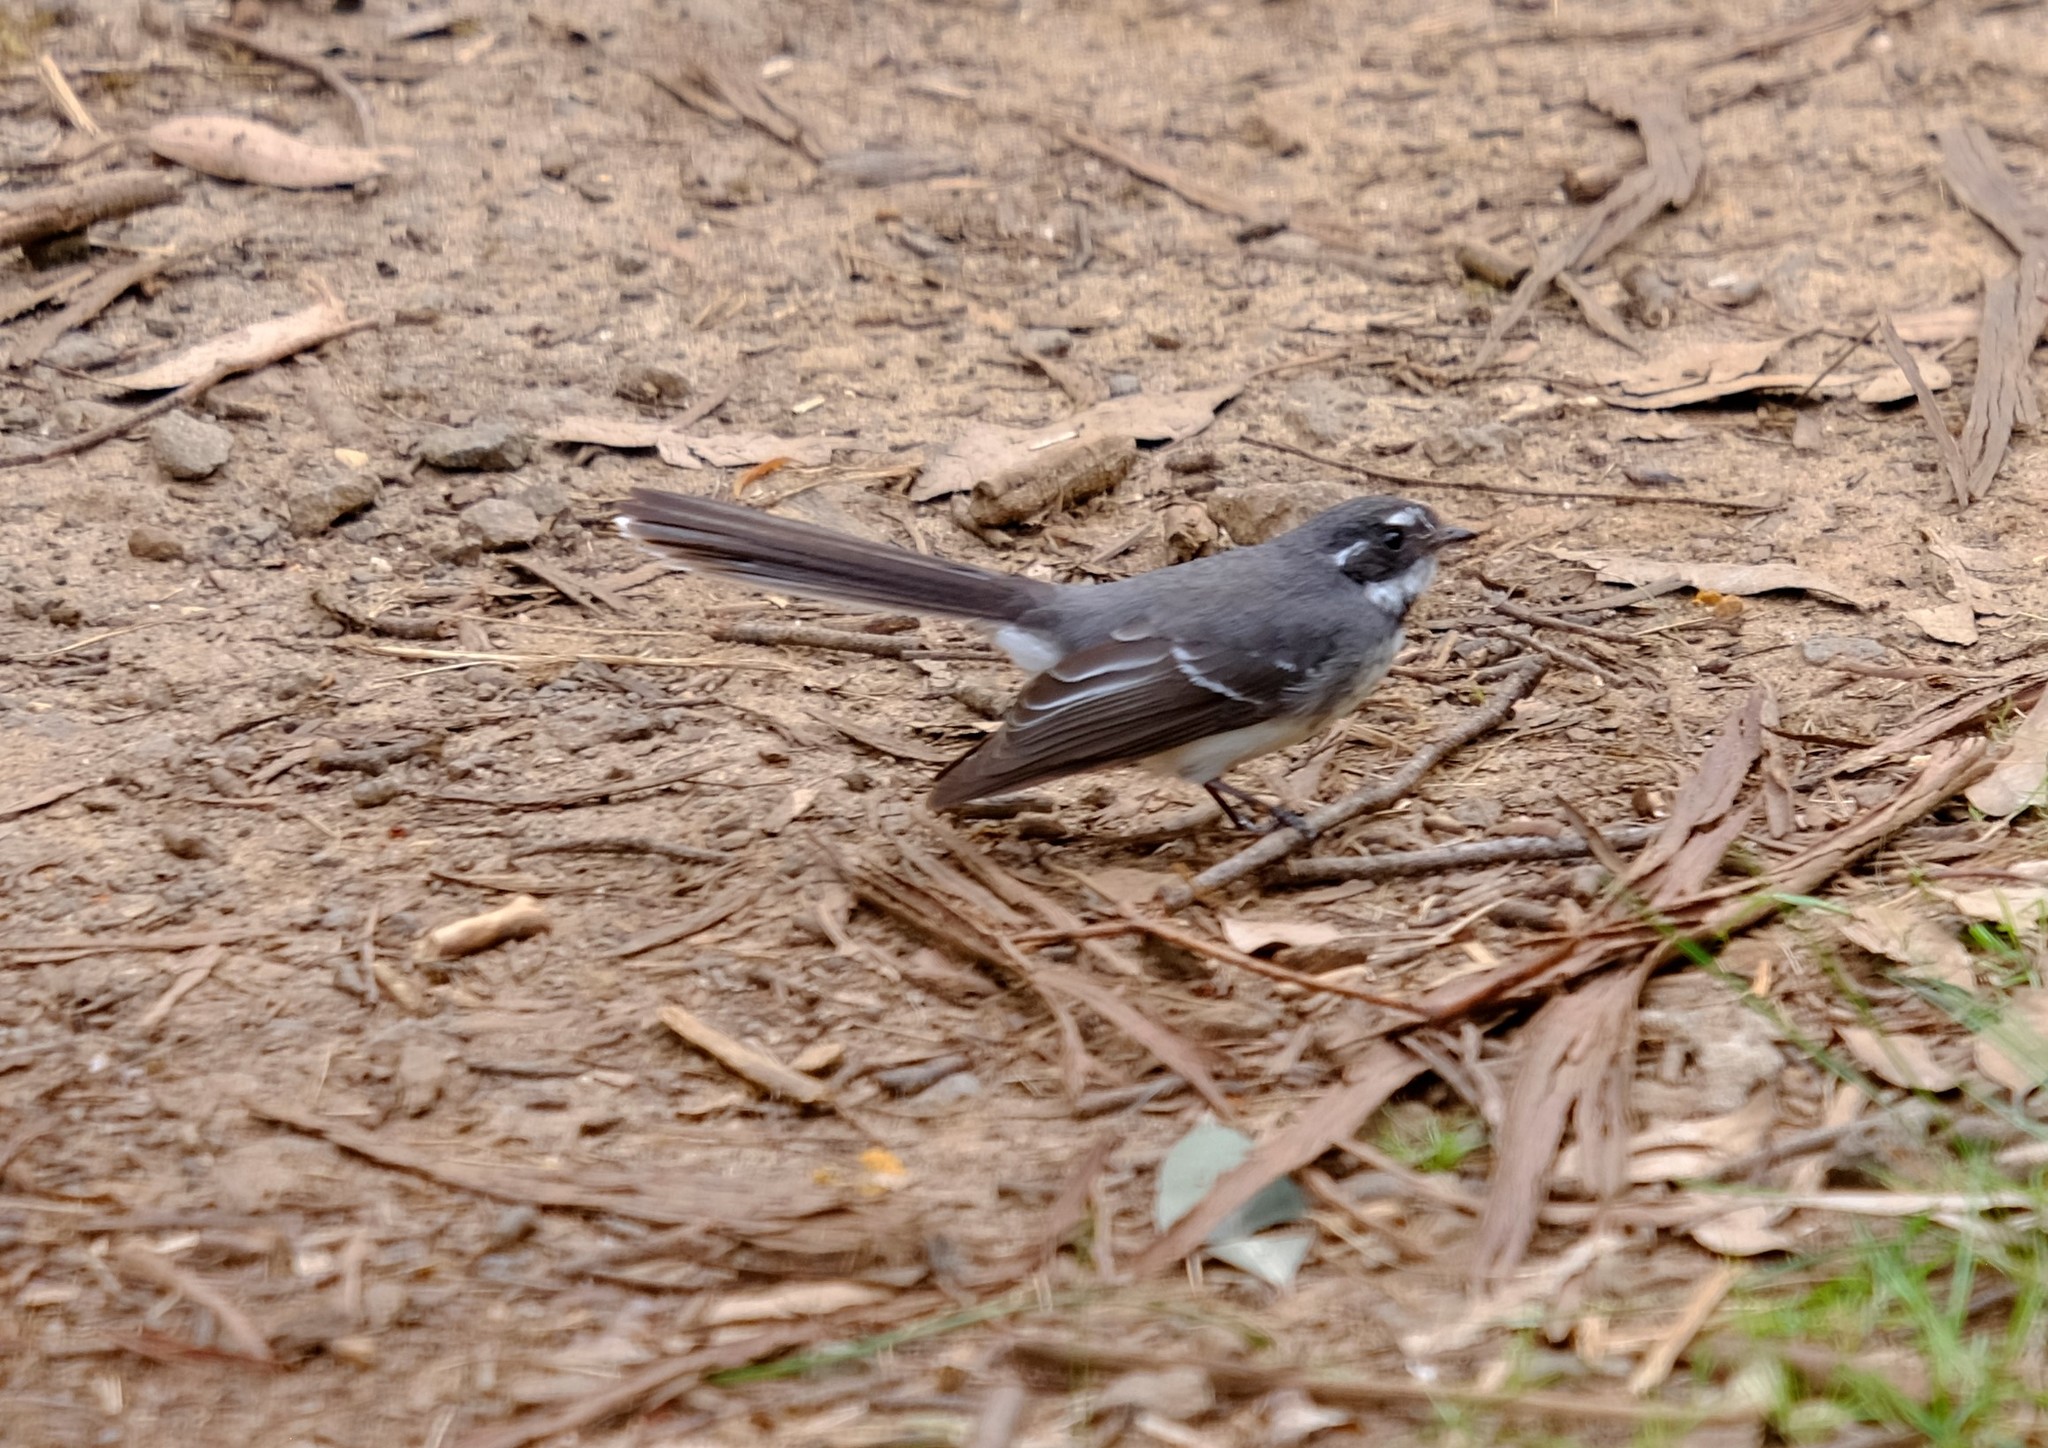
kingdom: Animalia
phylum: Chordata
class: Aves
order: Passeriformes
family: Rhipiduridae
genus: Rhipidura
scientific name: Rhipidura albiscapa
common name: Grey fantail
